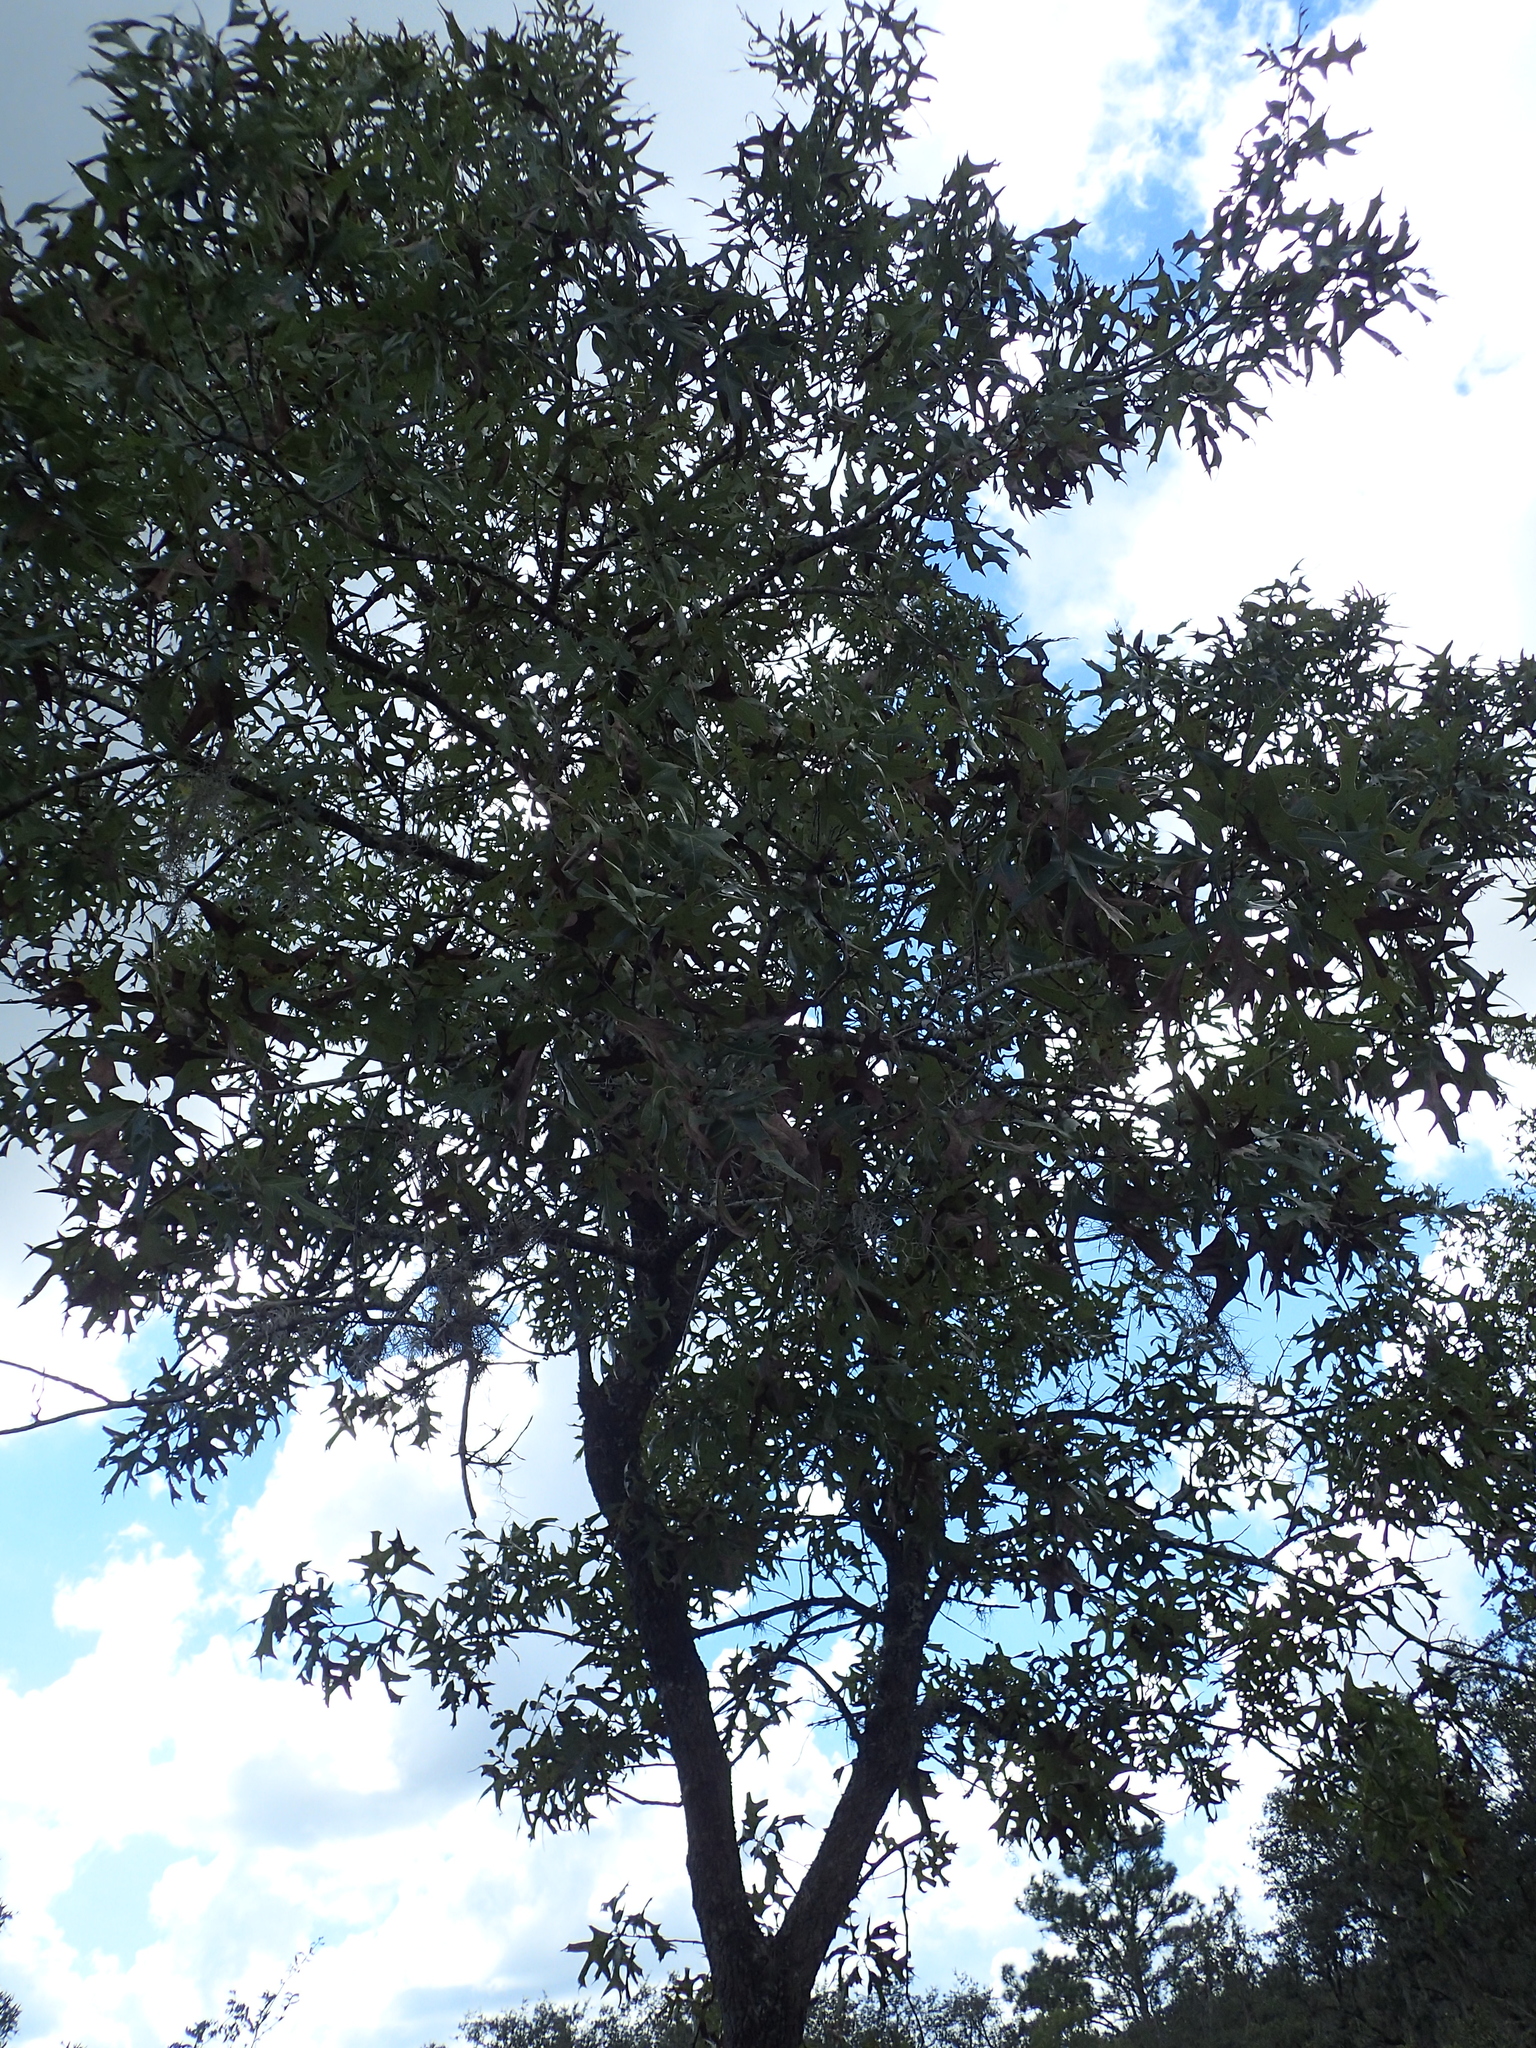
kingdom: Plantae
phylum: Tracheophyta
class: Magnoliopsida
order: Fagales
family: Fagaceae
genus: Quercus
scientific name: Quercus laevis
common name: Turkey oak
